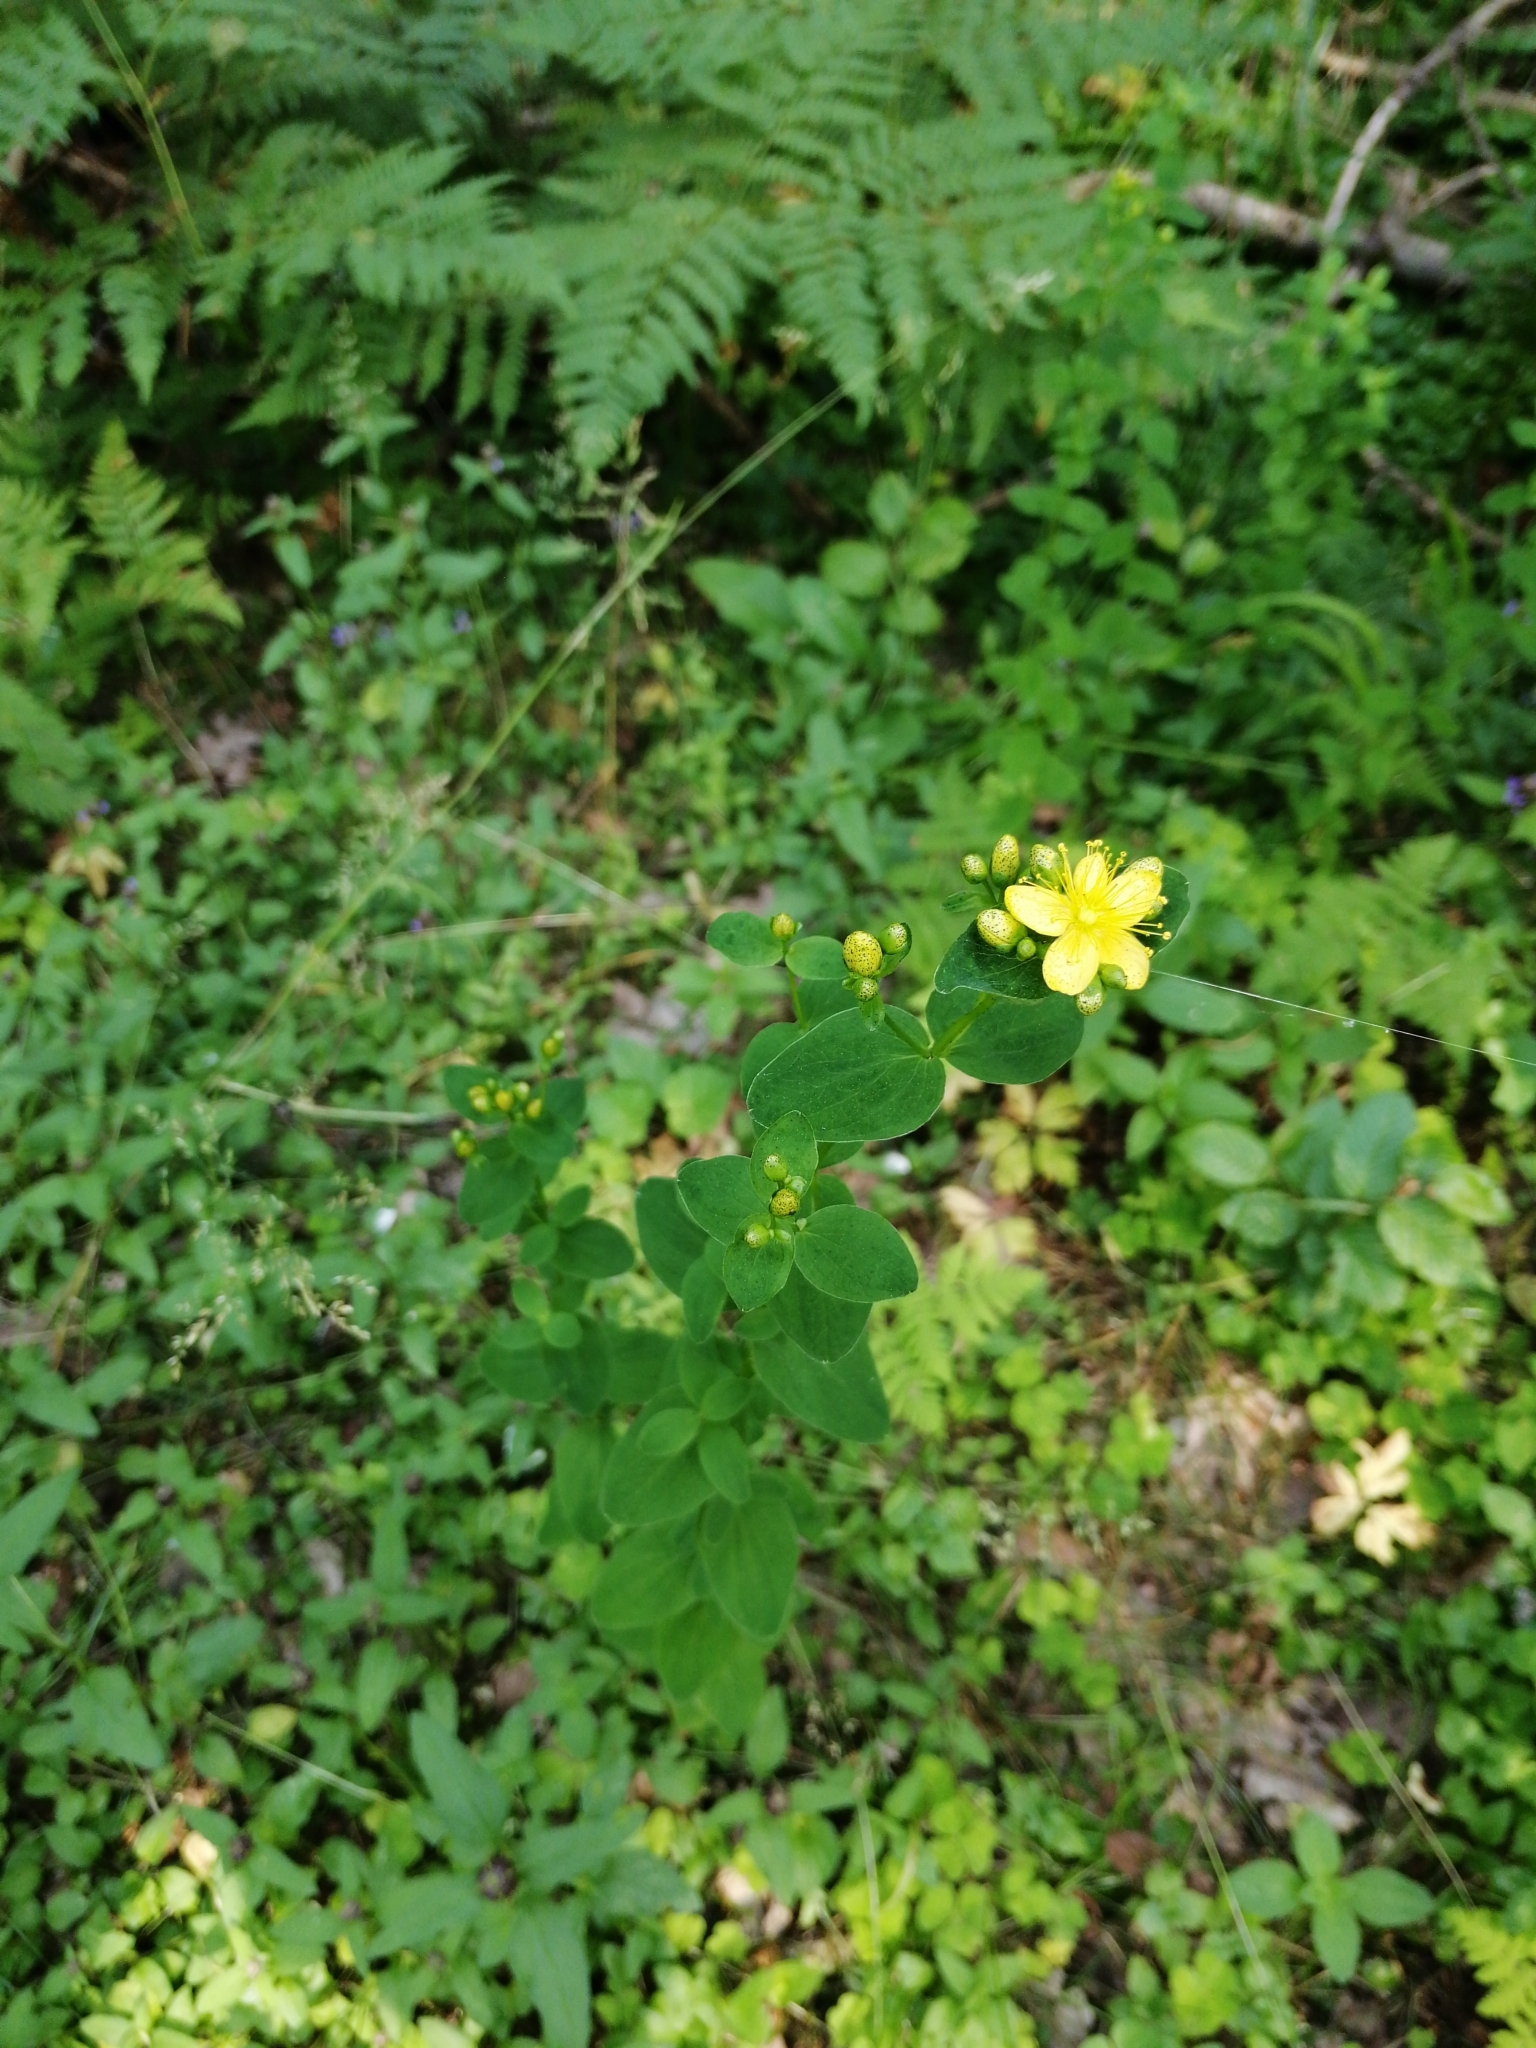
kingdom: Plantae
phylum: Tracheophyta
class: Magnoliopsida
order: Malpighiales
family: Hypericaceae
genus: Hypericum
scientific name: Hypericum maculatum
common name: Imperforate st. john's-wort
